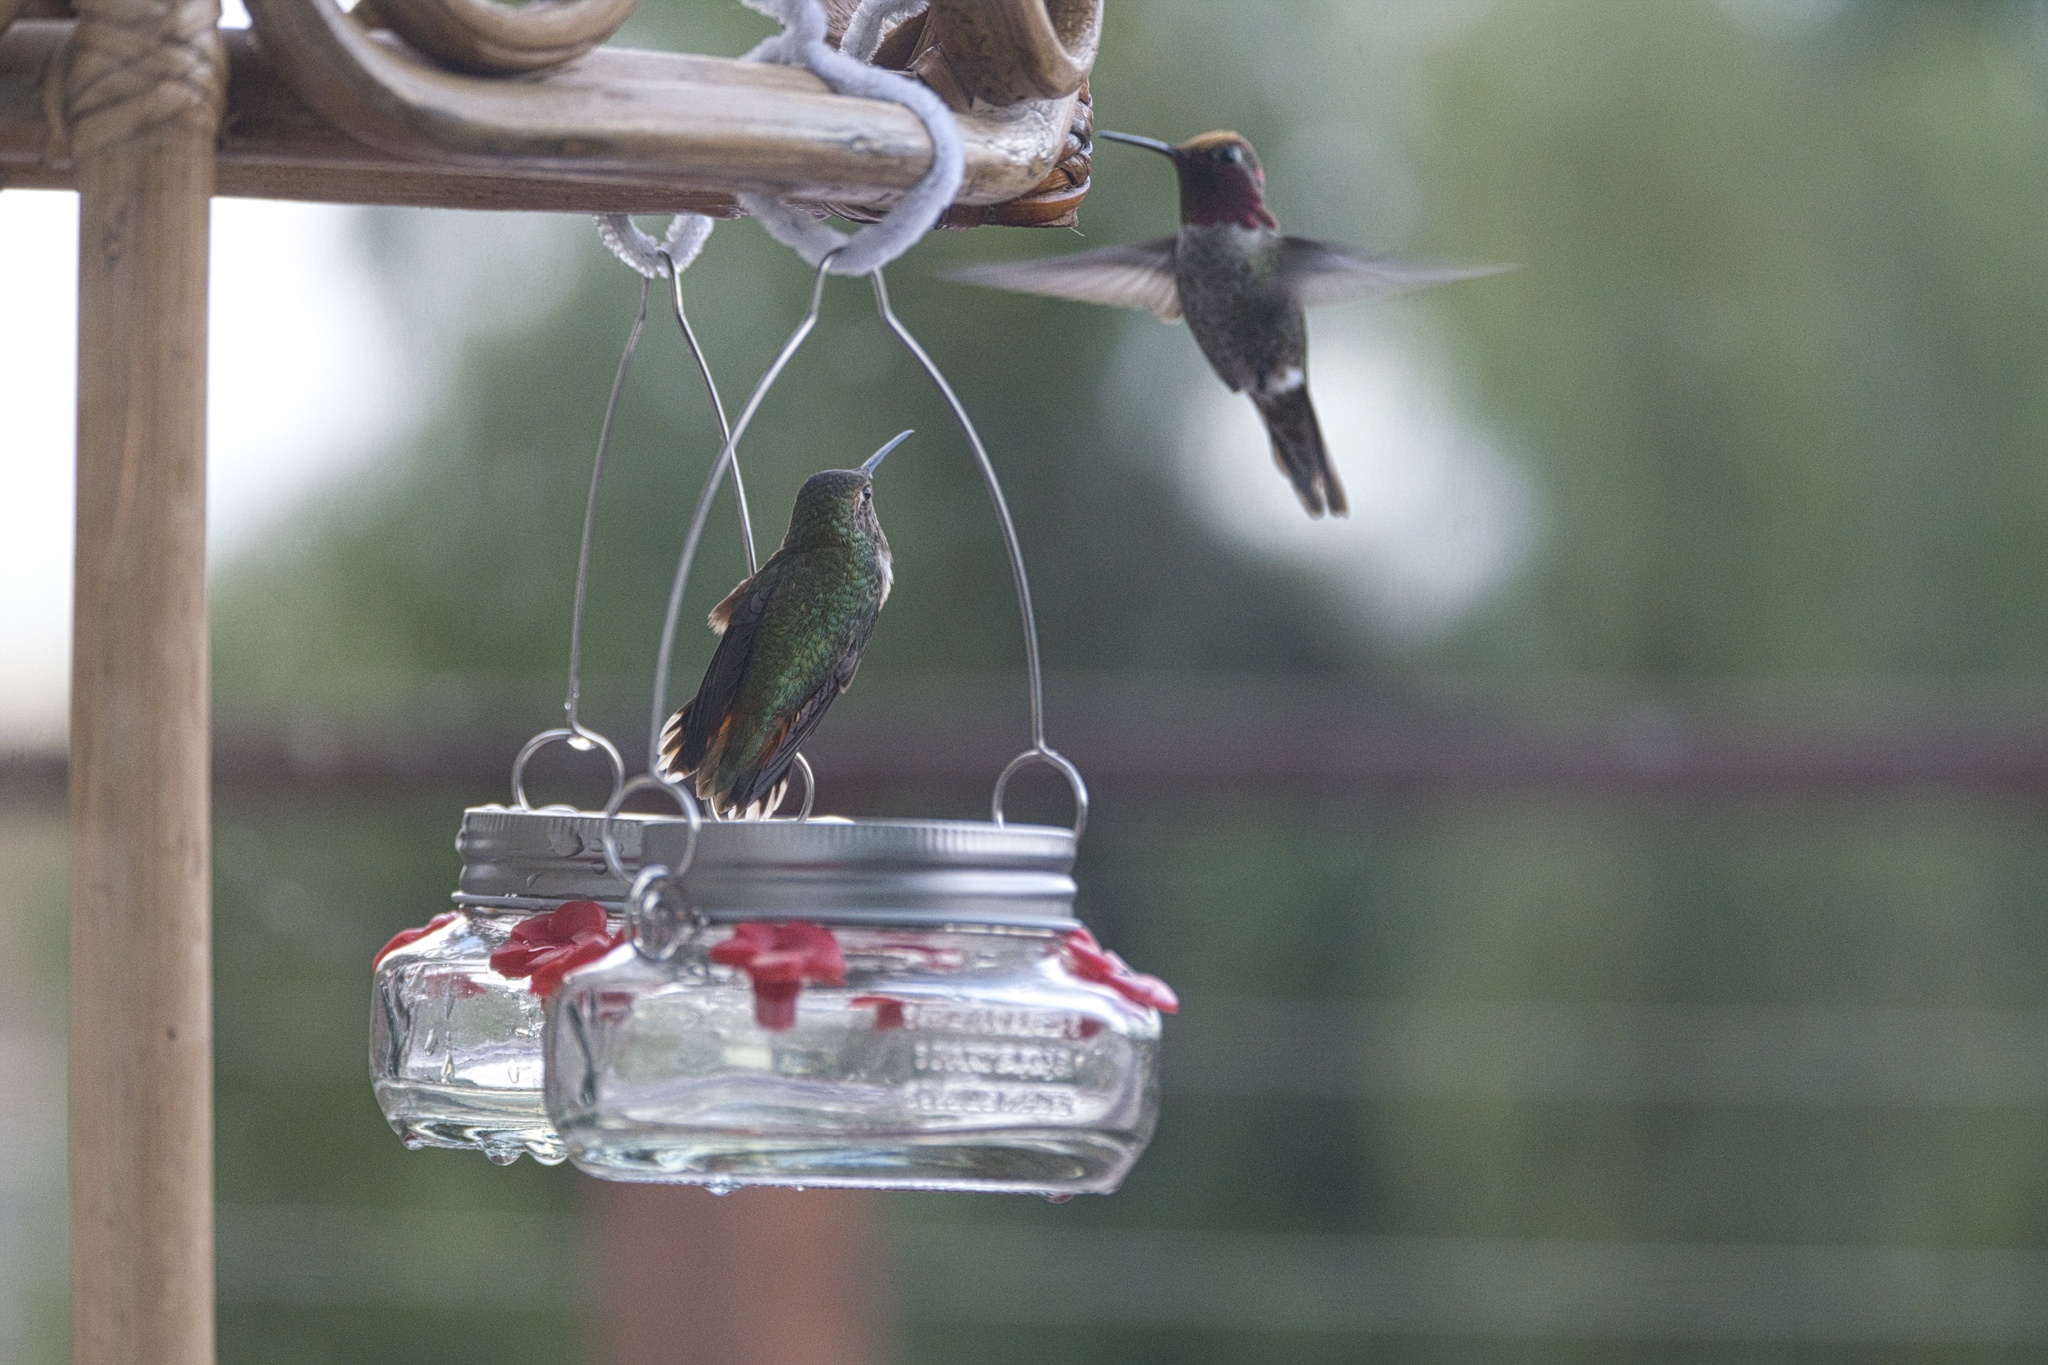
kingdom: Animalia
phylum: Chordata
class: Aves
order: Apodiformes
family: Trochilidae
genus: Selasphorus
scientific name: Selasphorus sasin
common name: Allen's hummingbird
